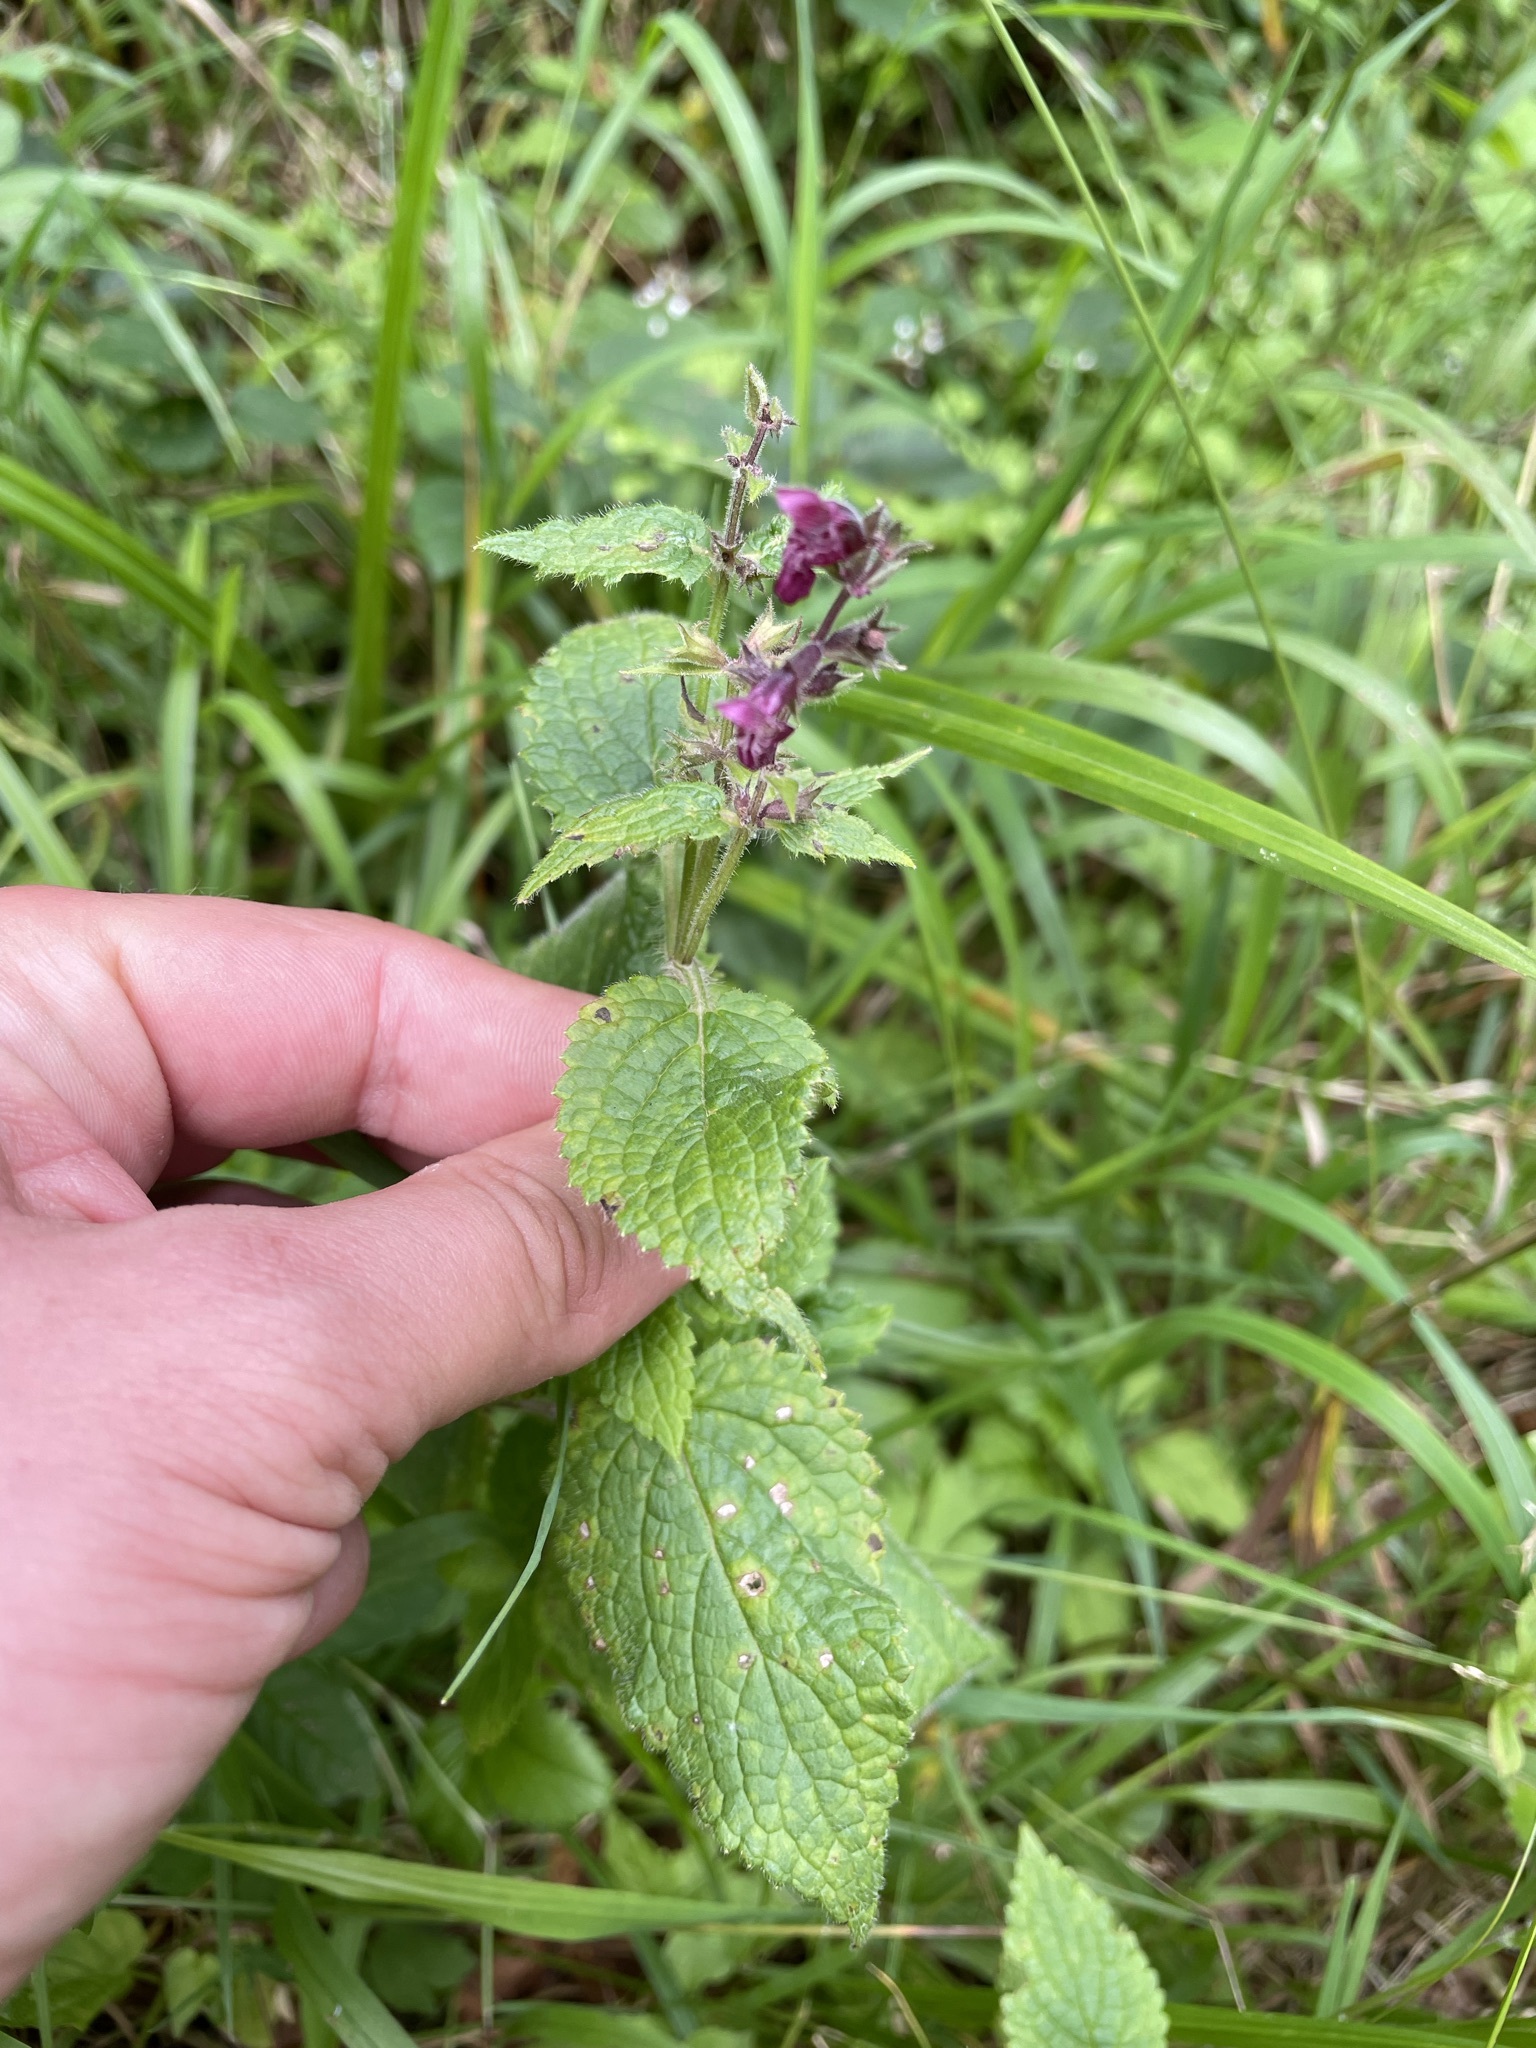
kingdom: Plantae
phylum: Tracheophyta
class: Magnoliopsida
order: Lamiales
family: Lamiaceae
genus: Stachys
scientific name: Stachys sylvatica
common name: Hedge woundwort
